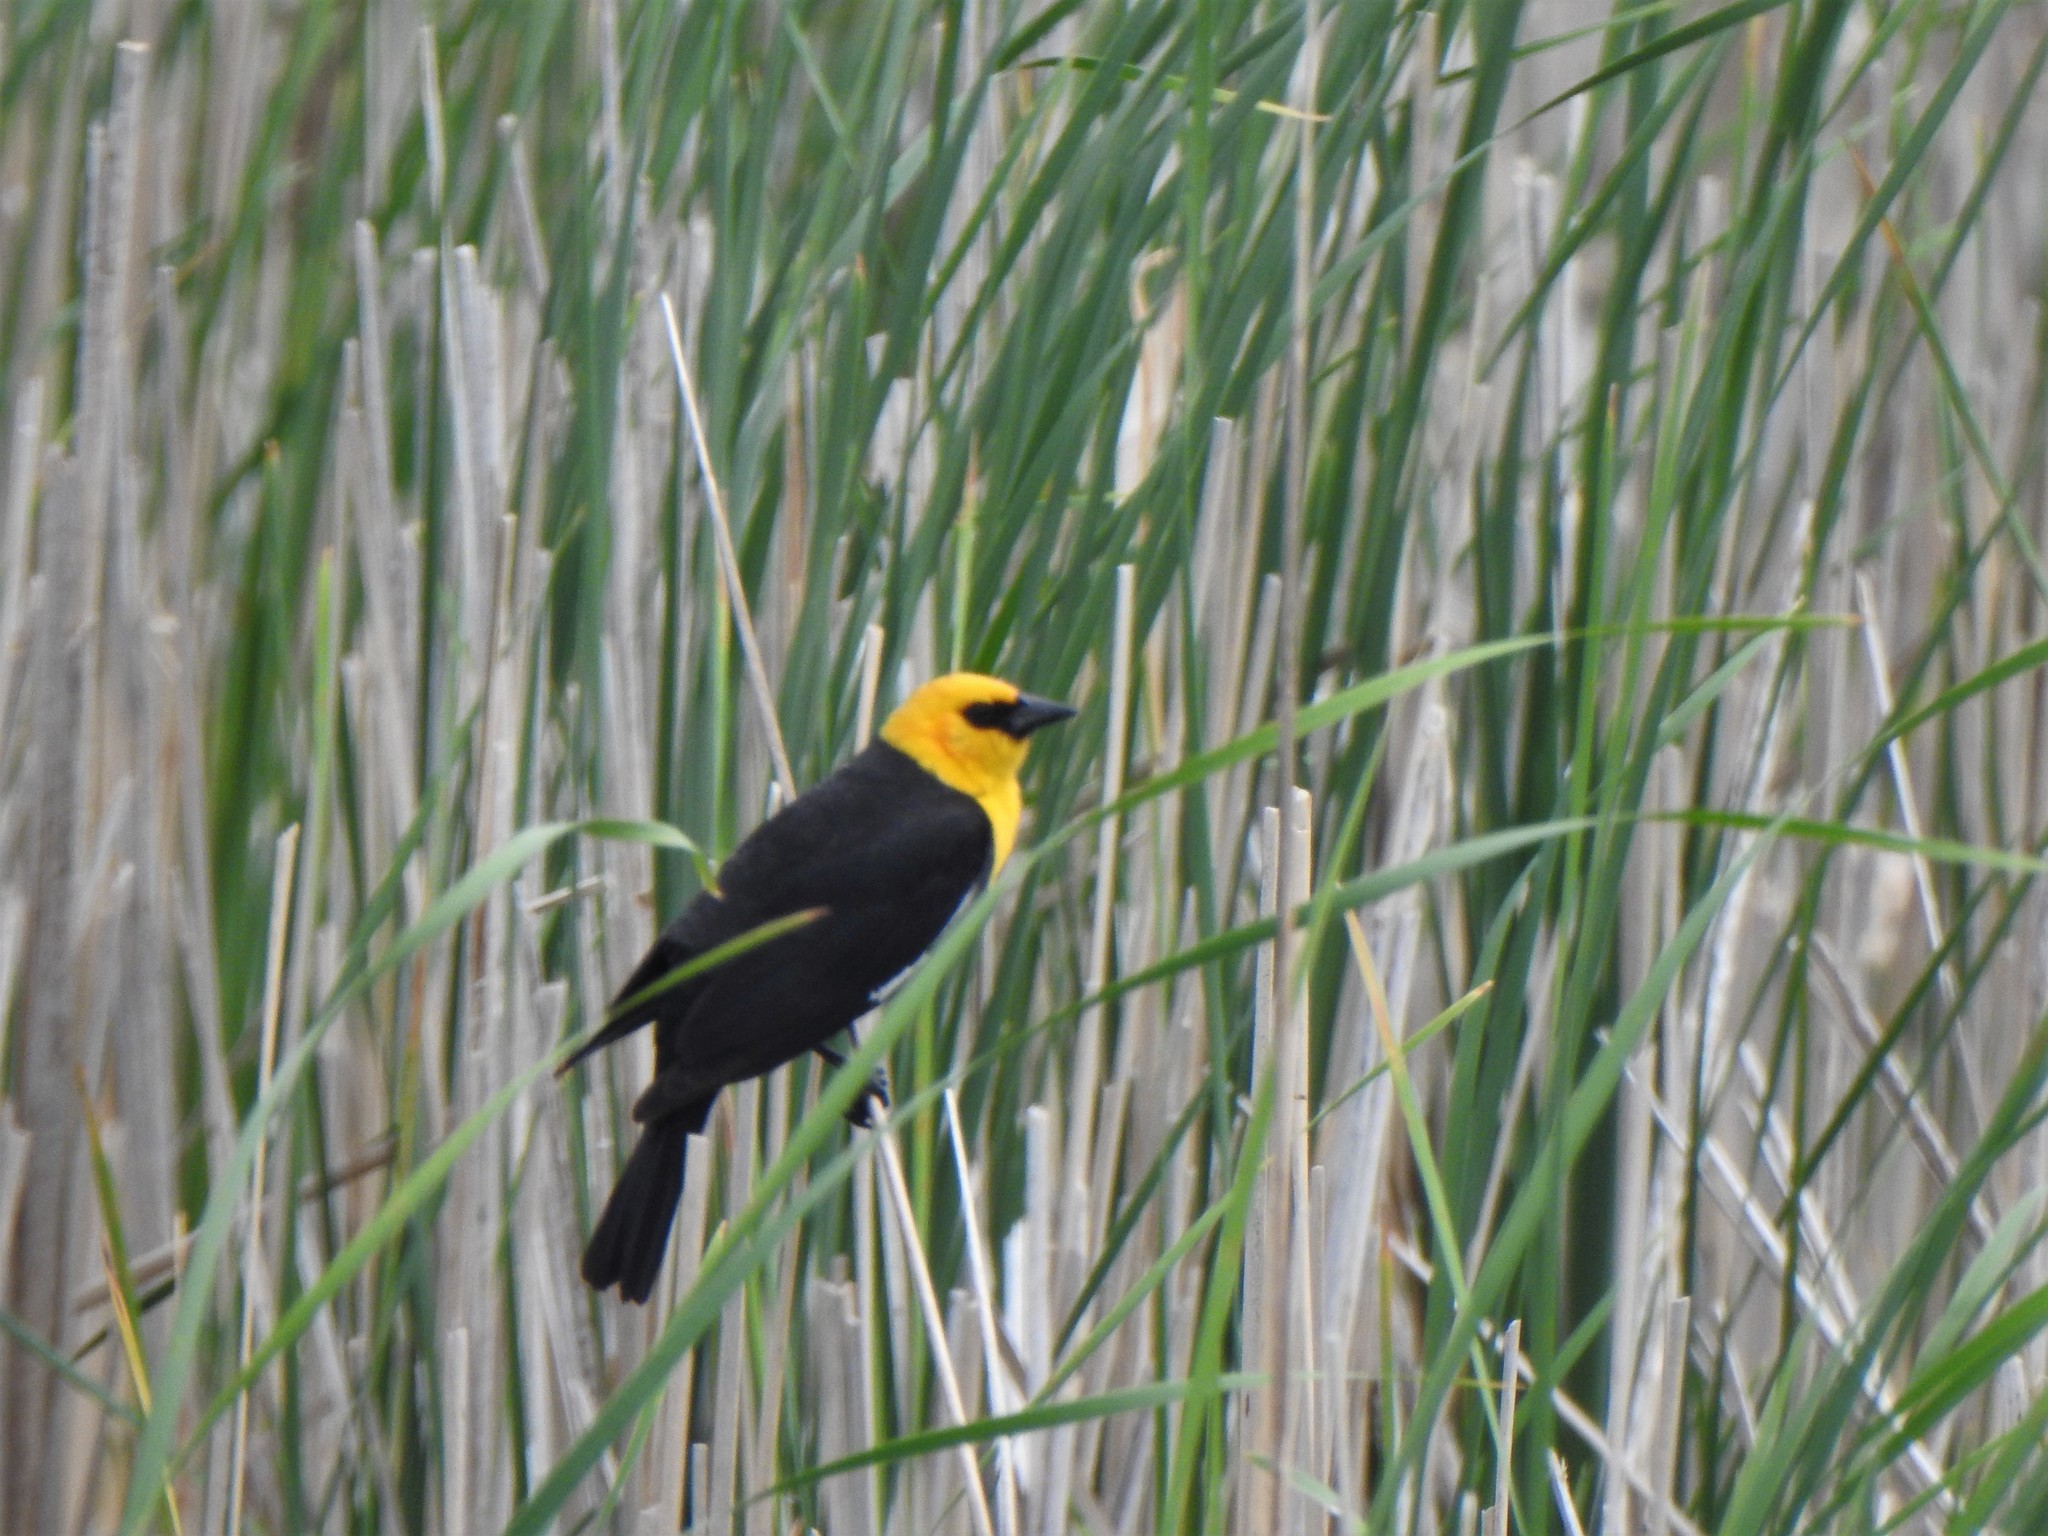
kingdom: Animalia
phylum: Chordata
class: Aves
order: Passeriformes
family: Icteridae
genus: Xanthocephalus
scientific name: Xanthocephalus xanthocephalus
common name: Yellow-headed blackbird
